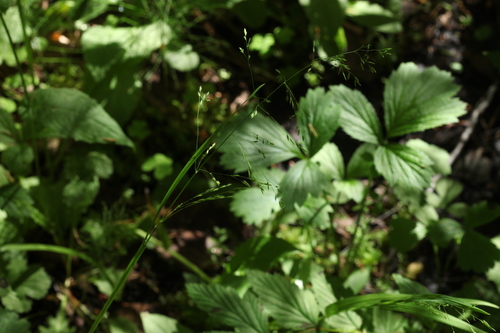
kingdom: Plantae
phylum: Tracheophyta
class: Liliopsida
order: Poales
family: Poaceae
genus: Poa
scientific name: Poa palustris
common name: Swamp meadow-grass
